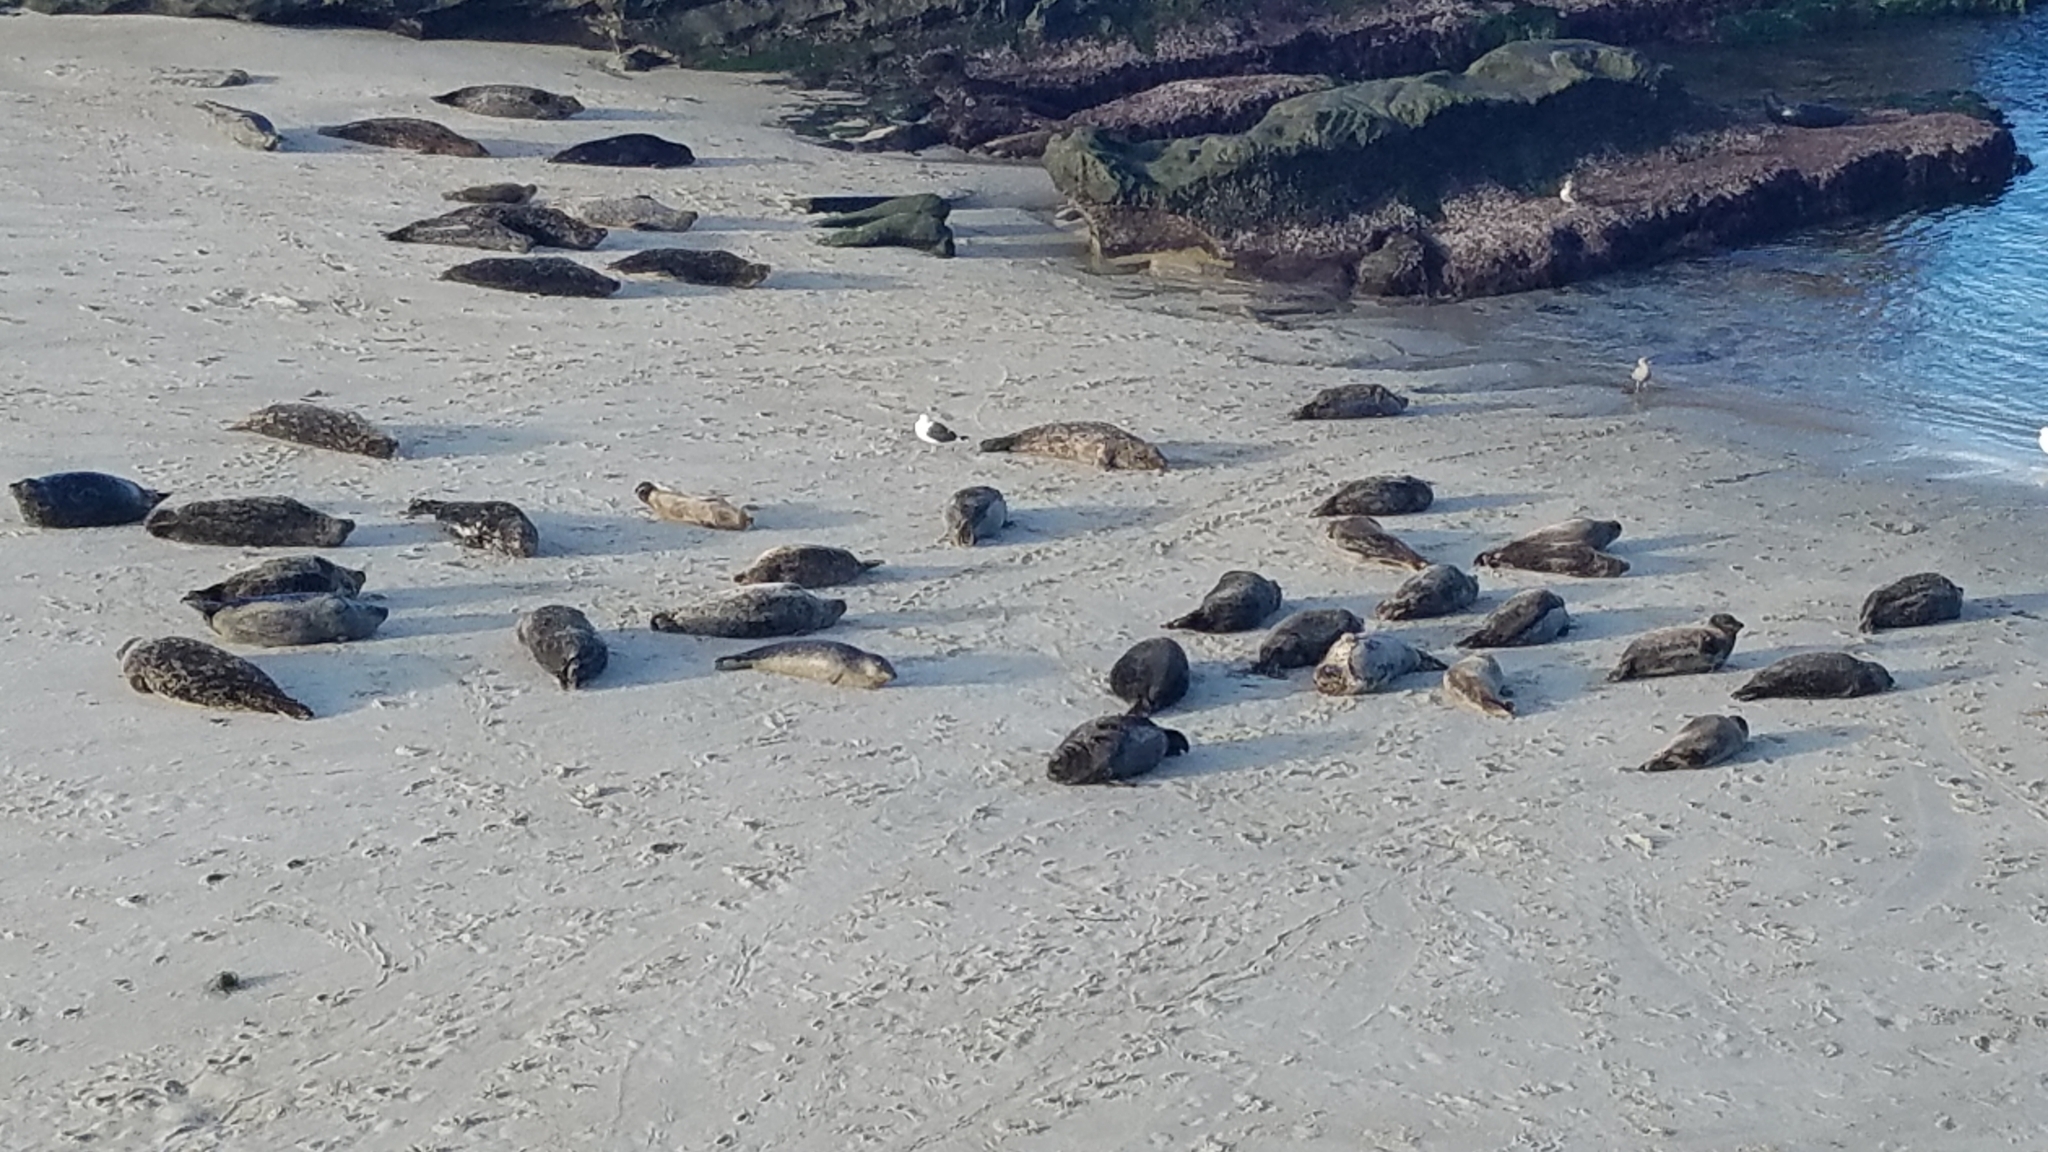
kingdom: Animalia
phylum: Chordata
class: Mammalia
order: Carnivora
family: Phocidae
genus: Phoca
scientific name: Phoca vitulina
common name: Harbor seal
